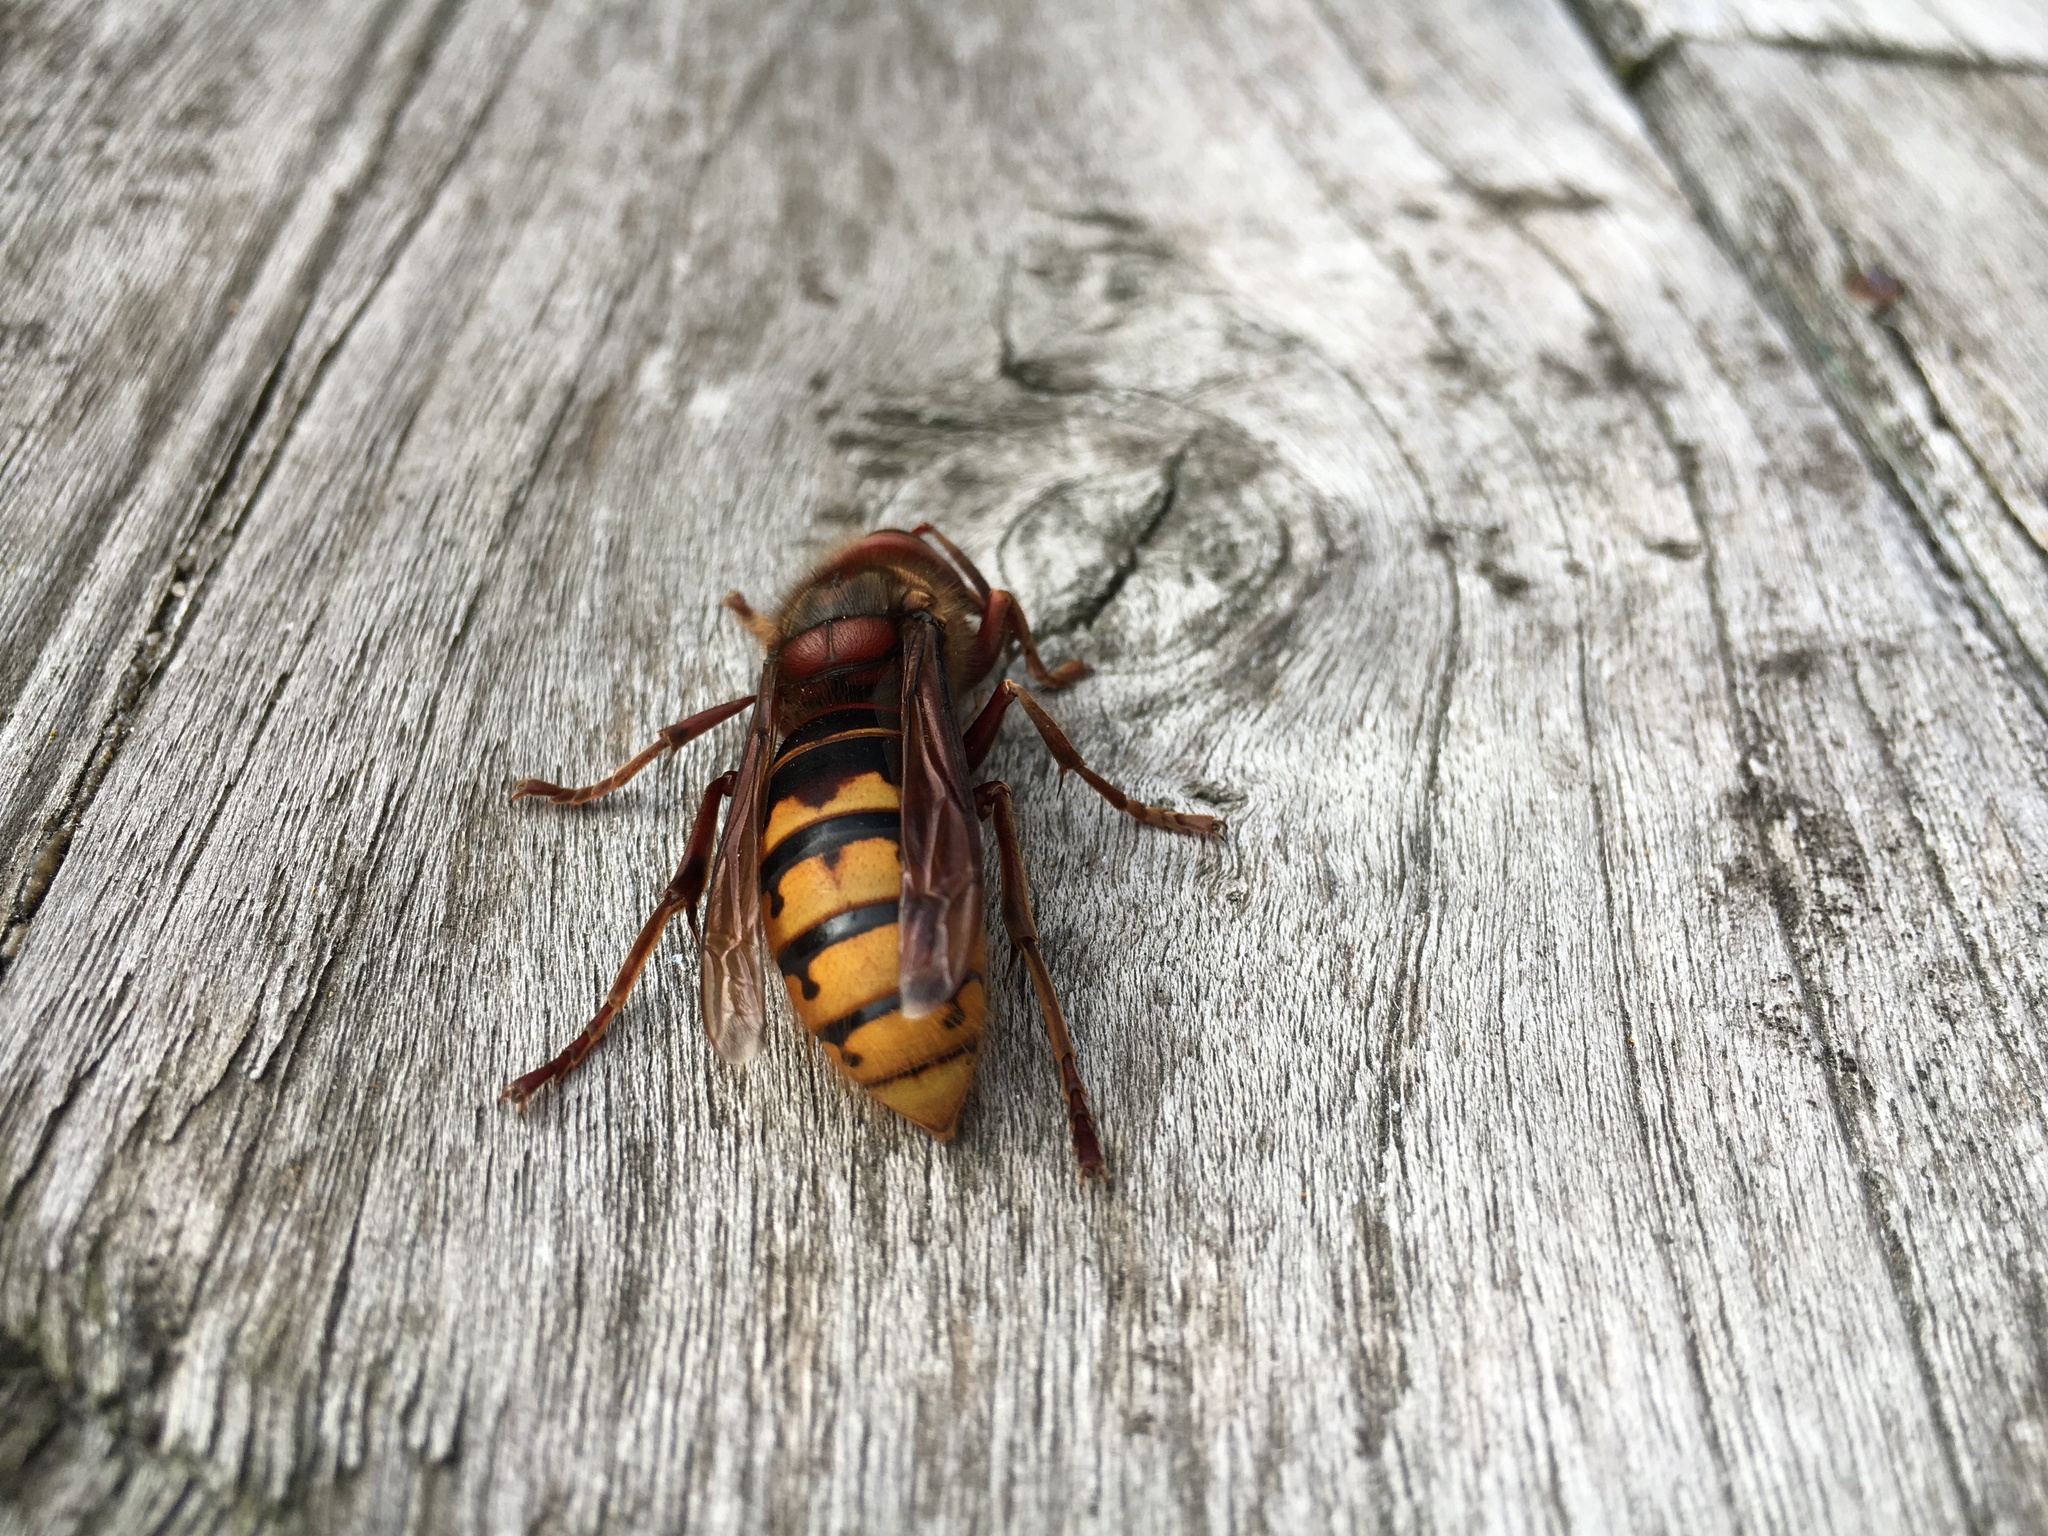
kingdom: Animalia
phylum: Arthropoda
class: Insecta
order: Hymenoptera
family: Vespidae
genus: Vespa
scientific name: Vespa crabro
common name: Hornet
